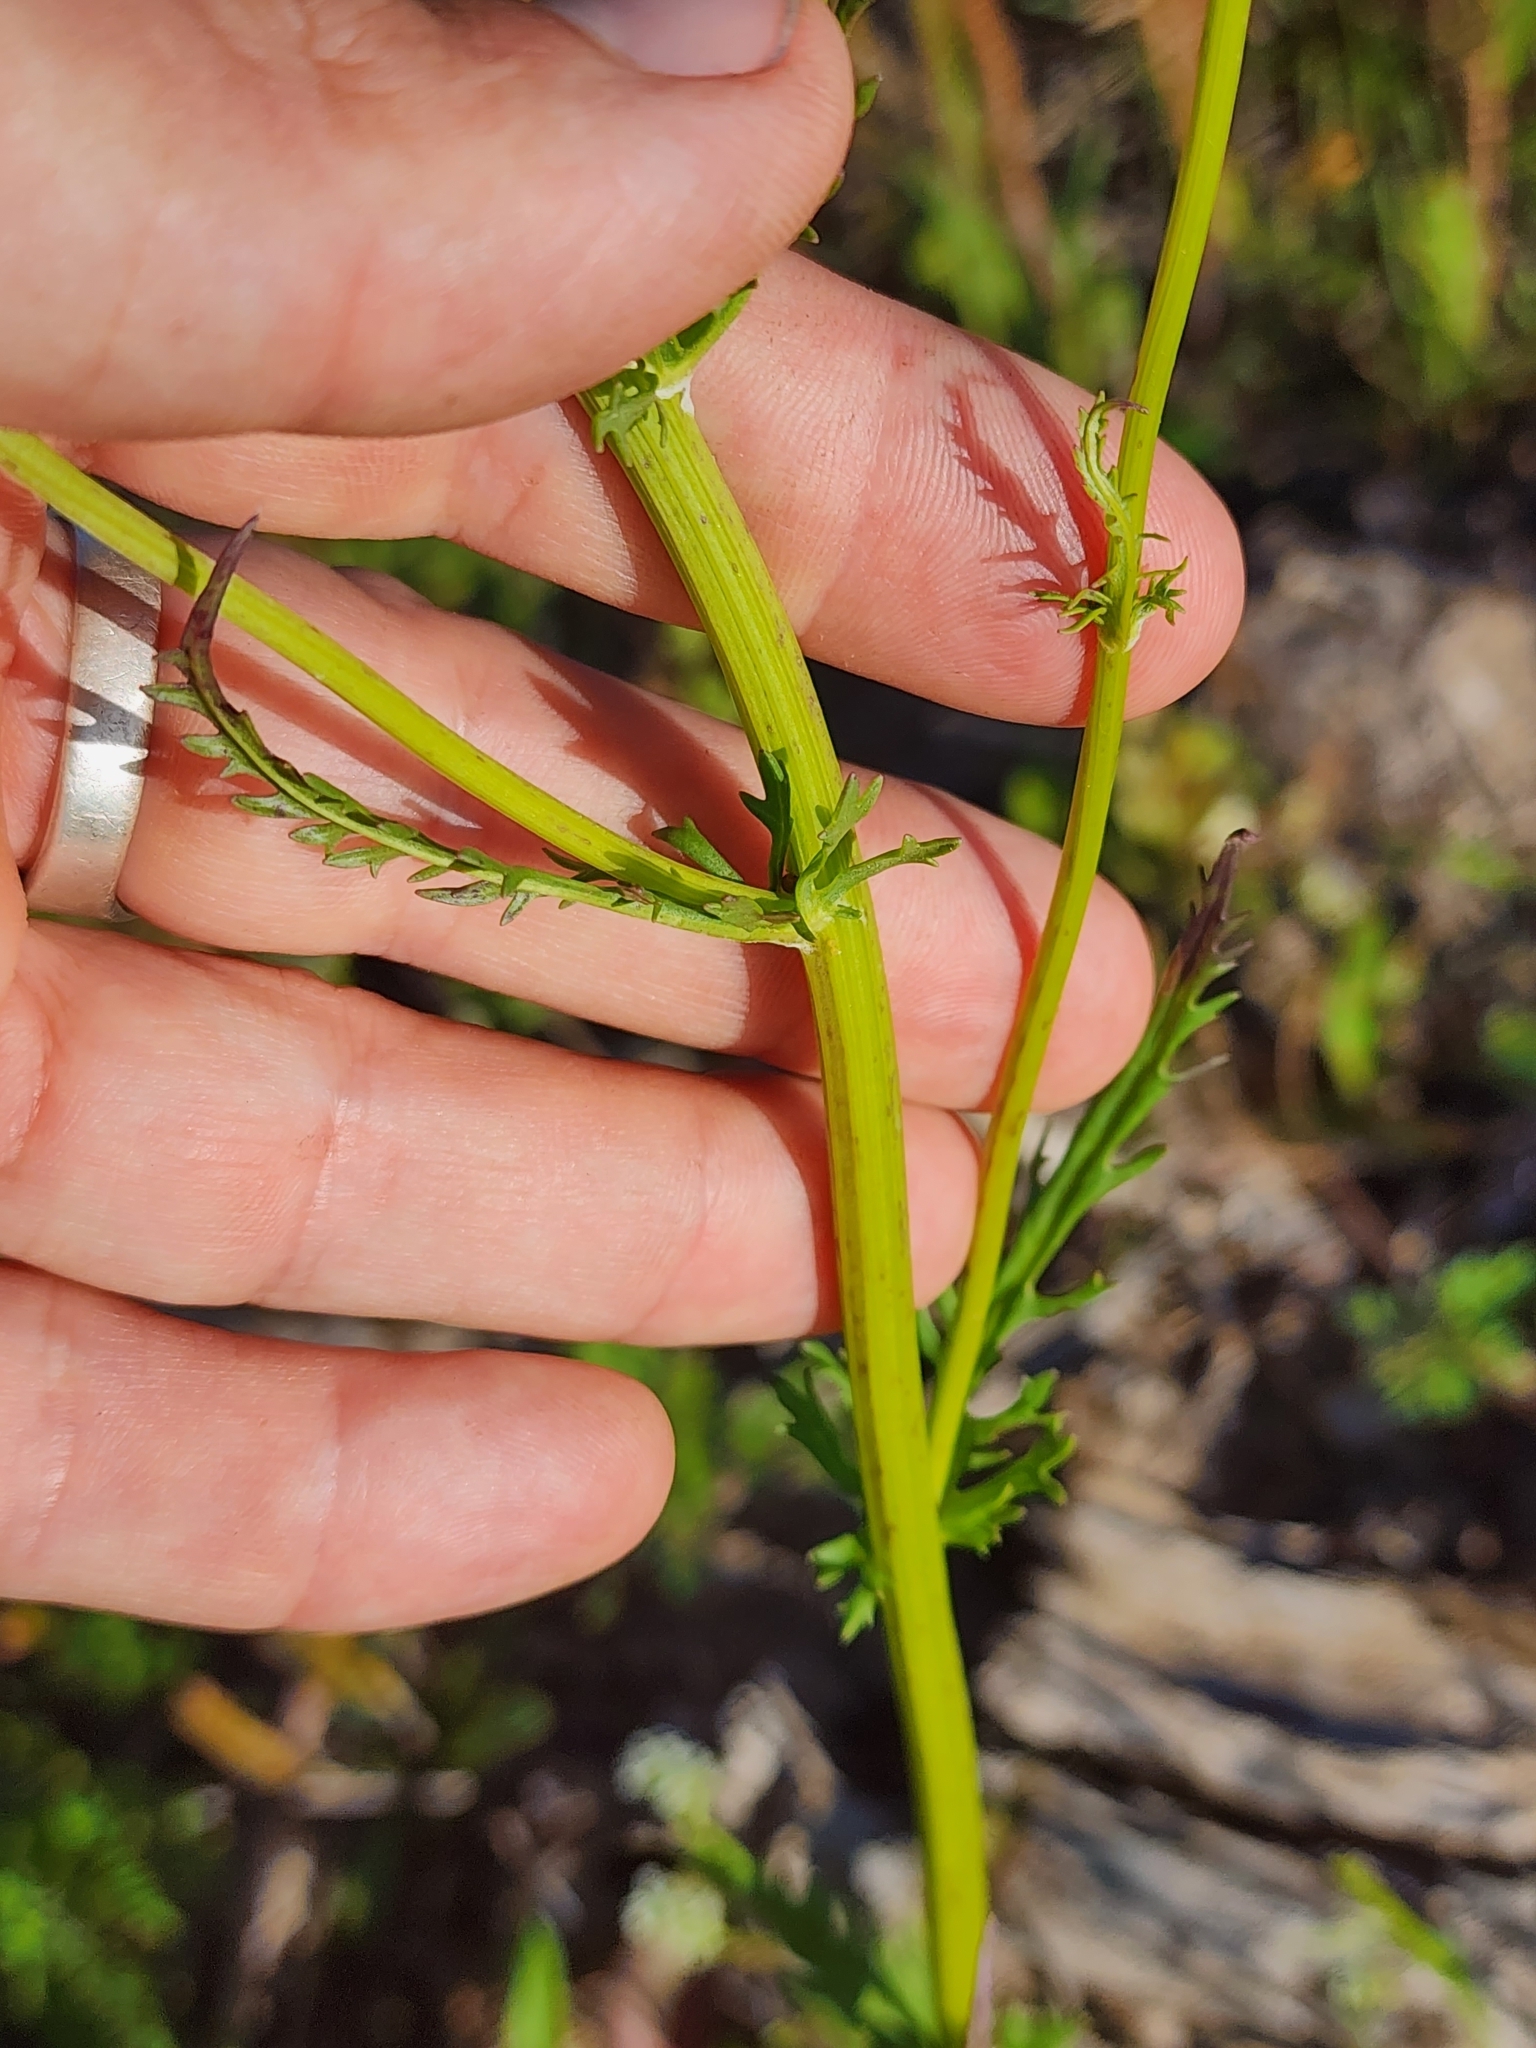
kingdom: Plantae
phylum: Tracheophyta
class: Magnoliopsida
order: Asterales
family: Asteraceae
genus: Packera
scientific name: Packera anonyma
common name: Small ragwort
